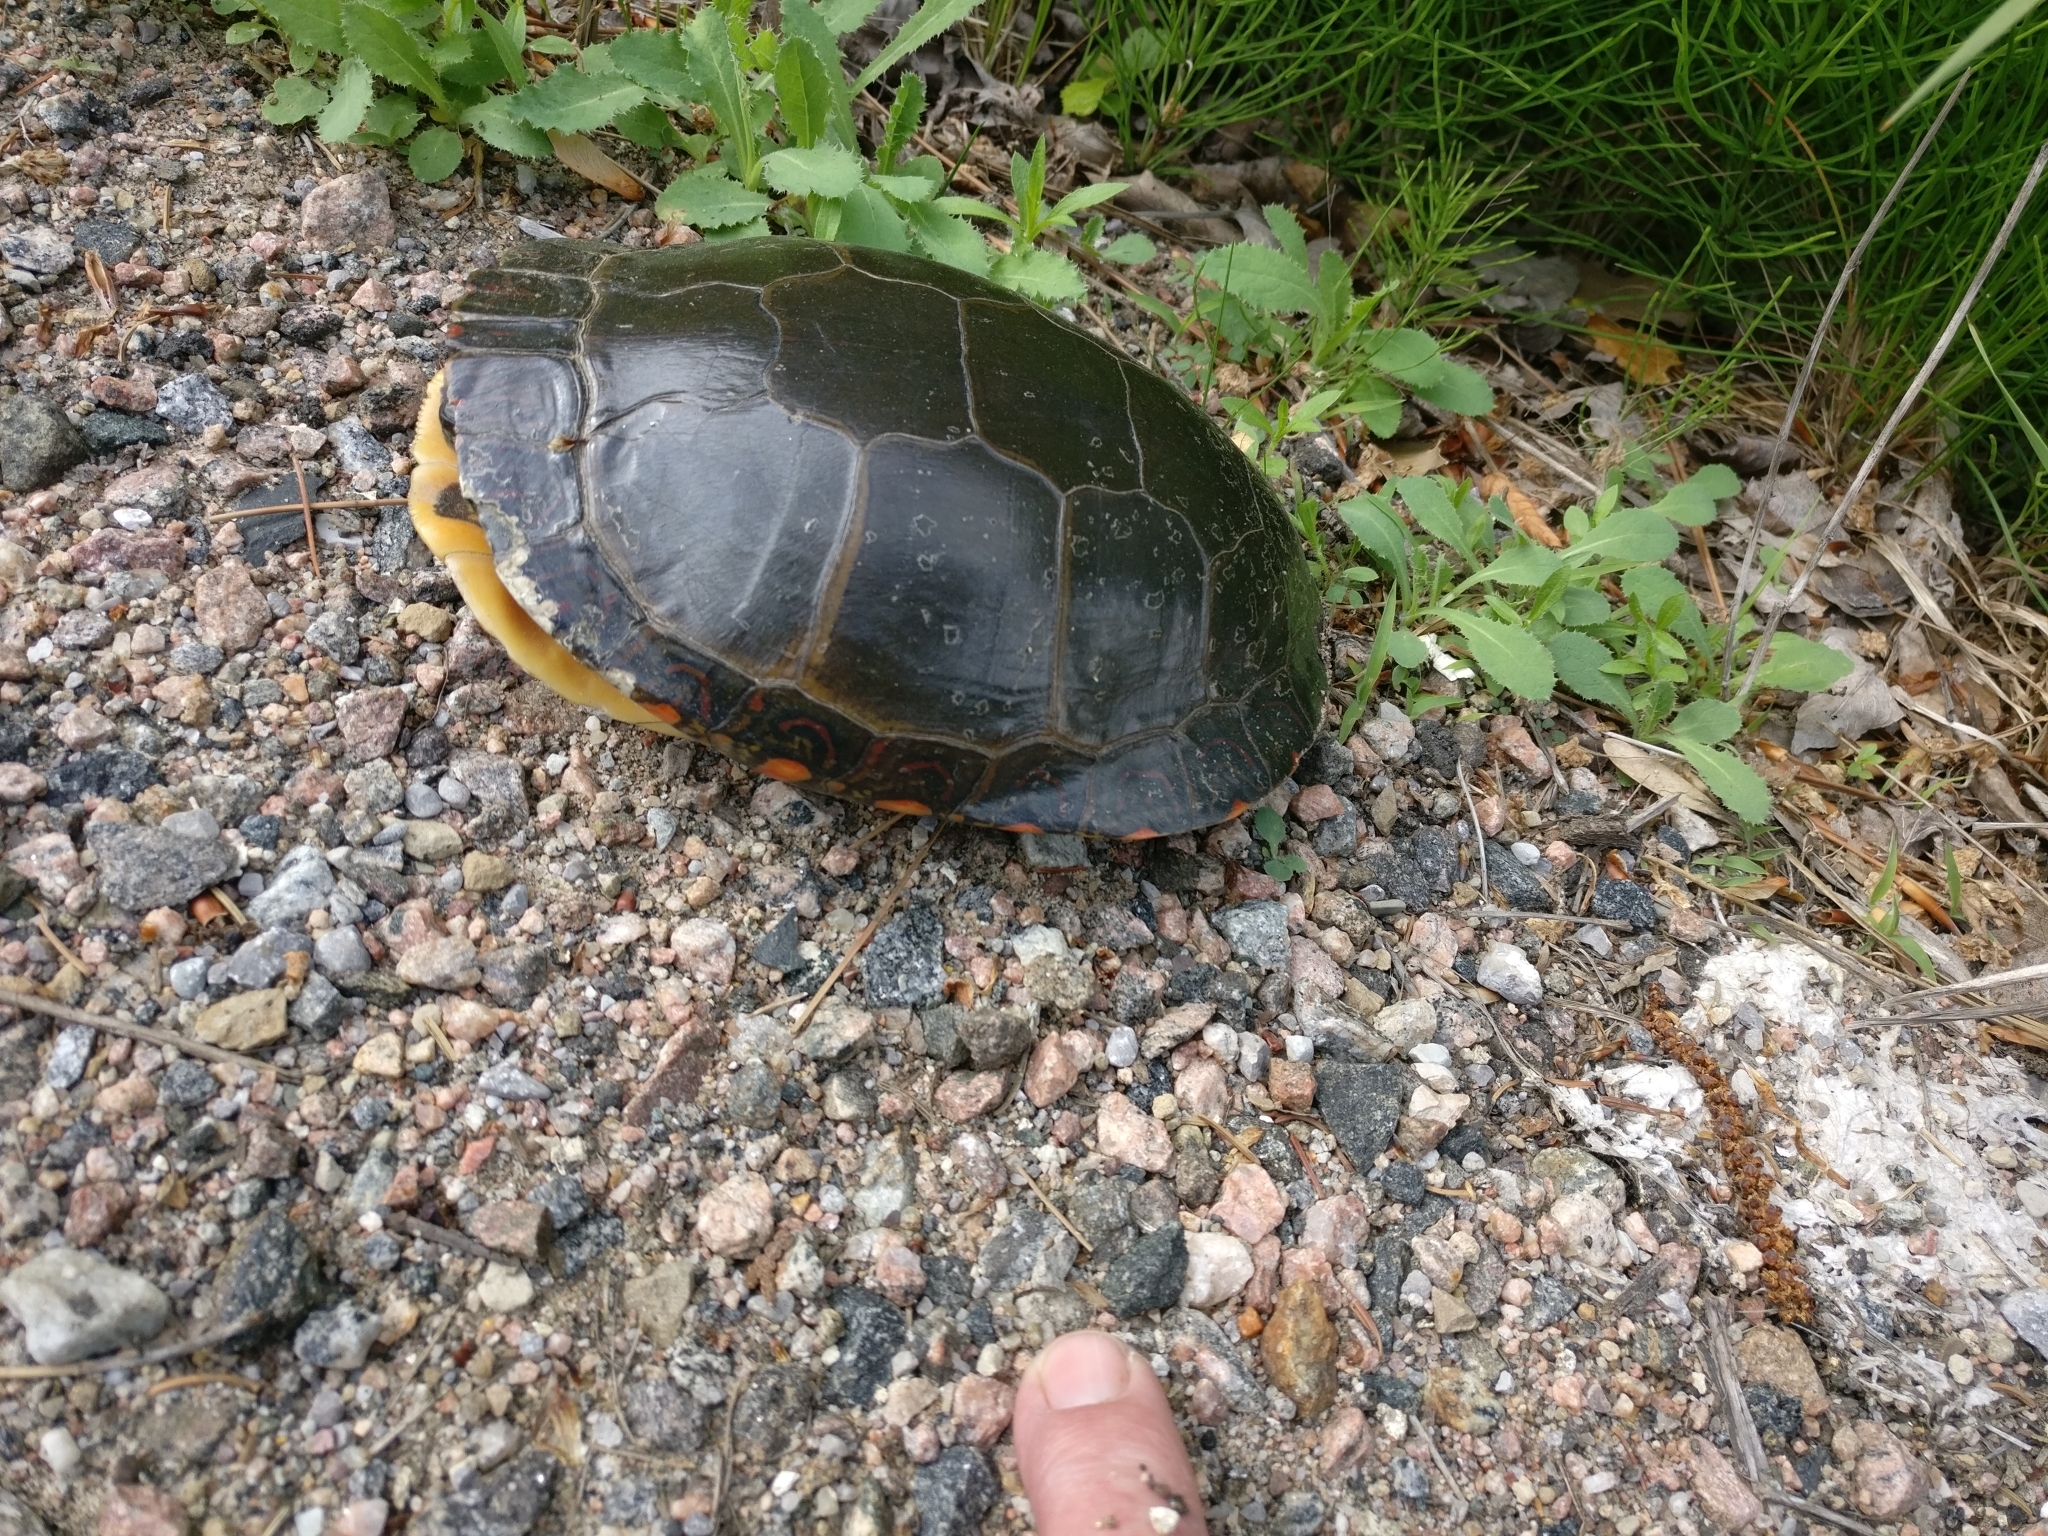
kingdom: Animalia
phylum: Chordata
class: Testudines
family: Emydidae
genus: Chrysemys
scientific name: Chrysemys picta
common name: Painted turtle
